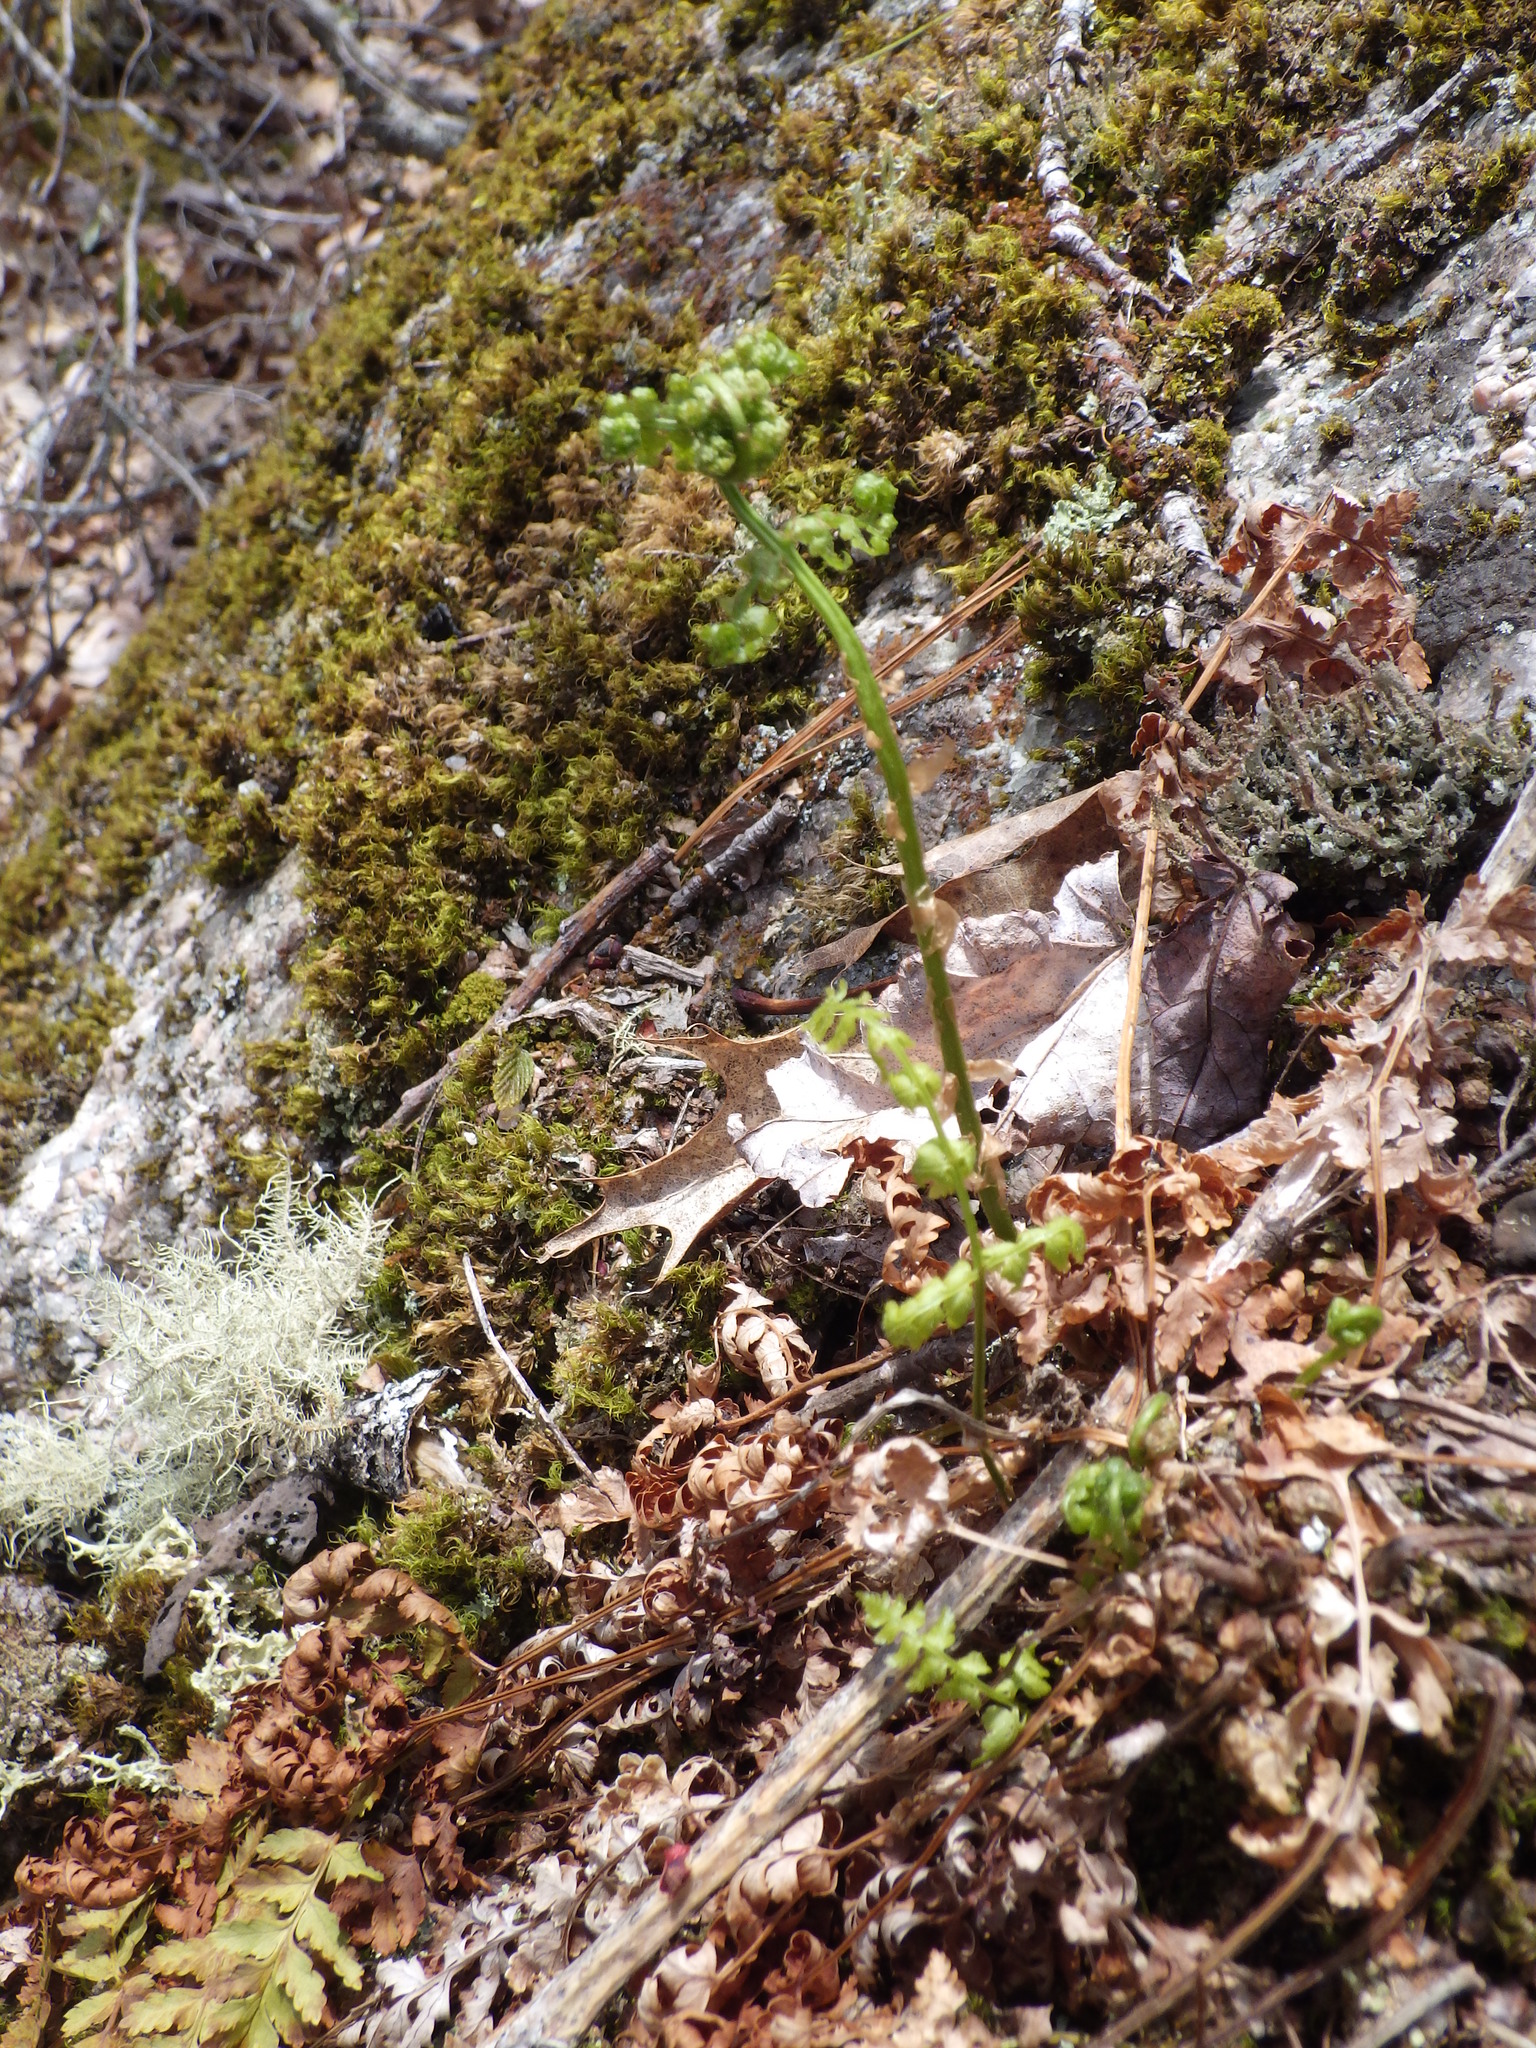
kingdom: Plantae
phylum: Tracheophyta
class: Polypodiopsida
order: Polypodiales
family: Dryopteridaceae
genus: Dryopteris
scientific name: Dryopteris intermedia
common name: Evergreen wood fern
